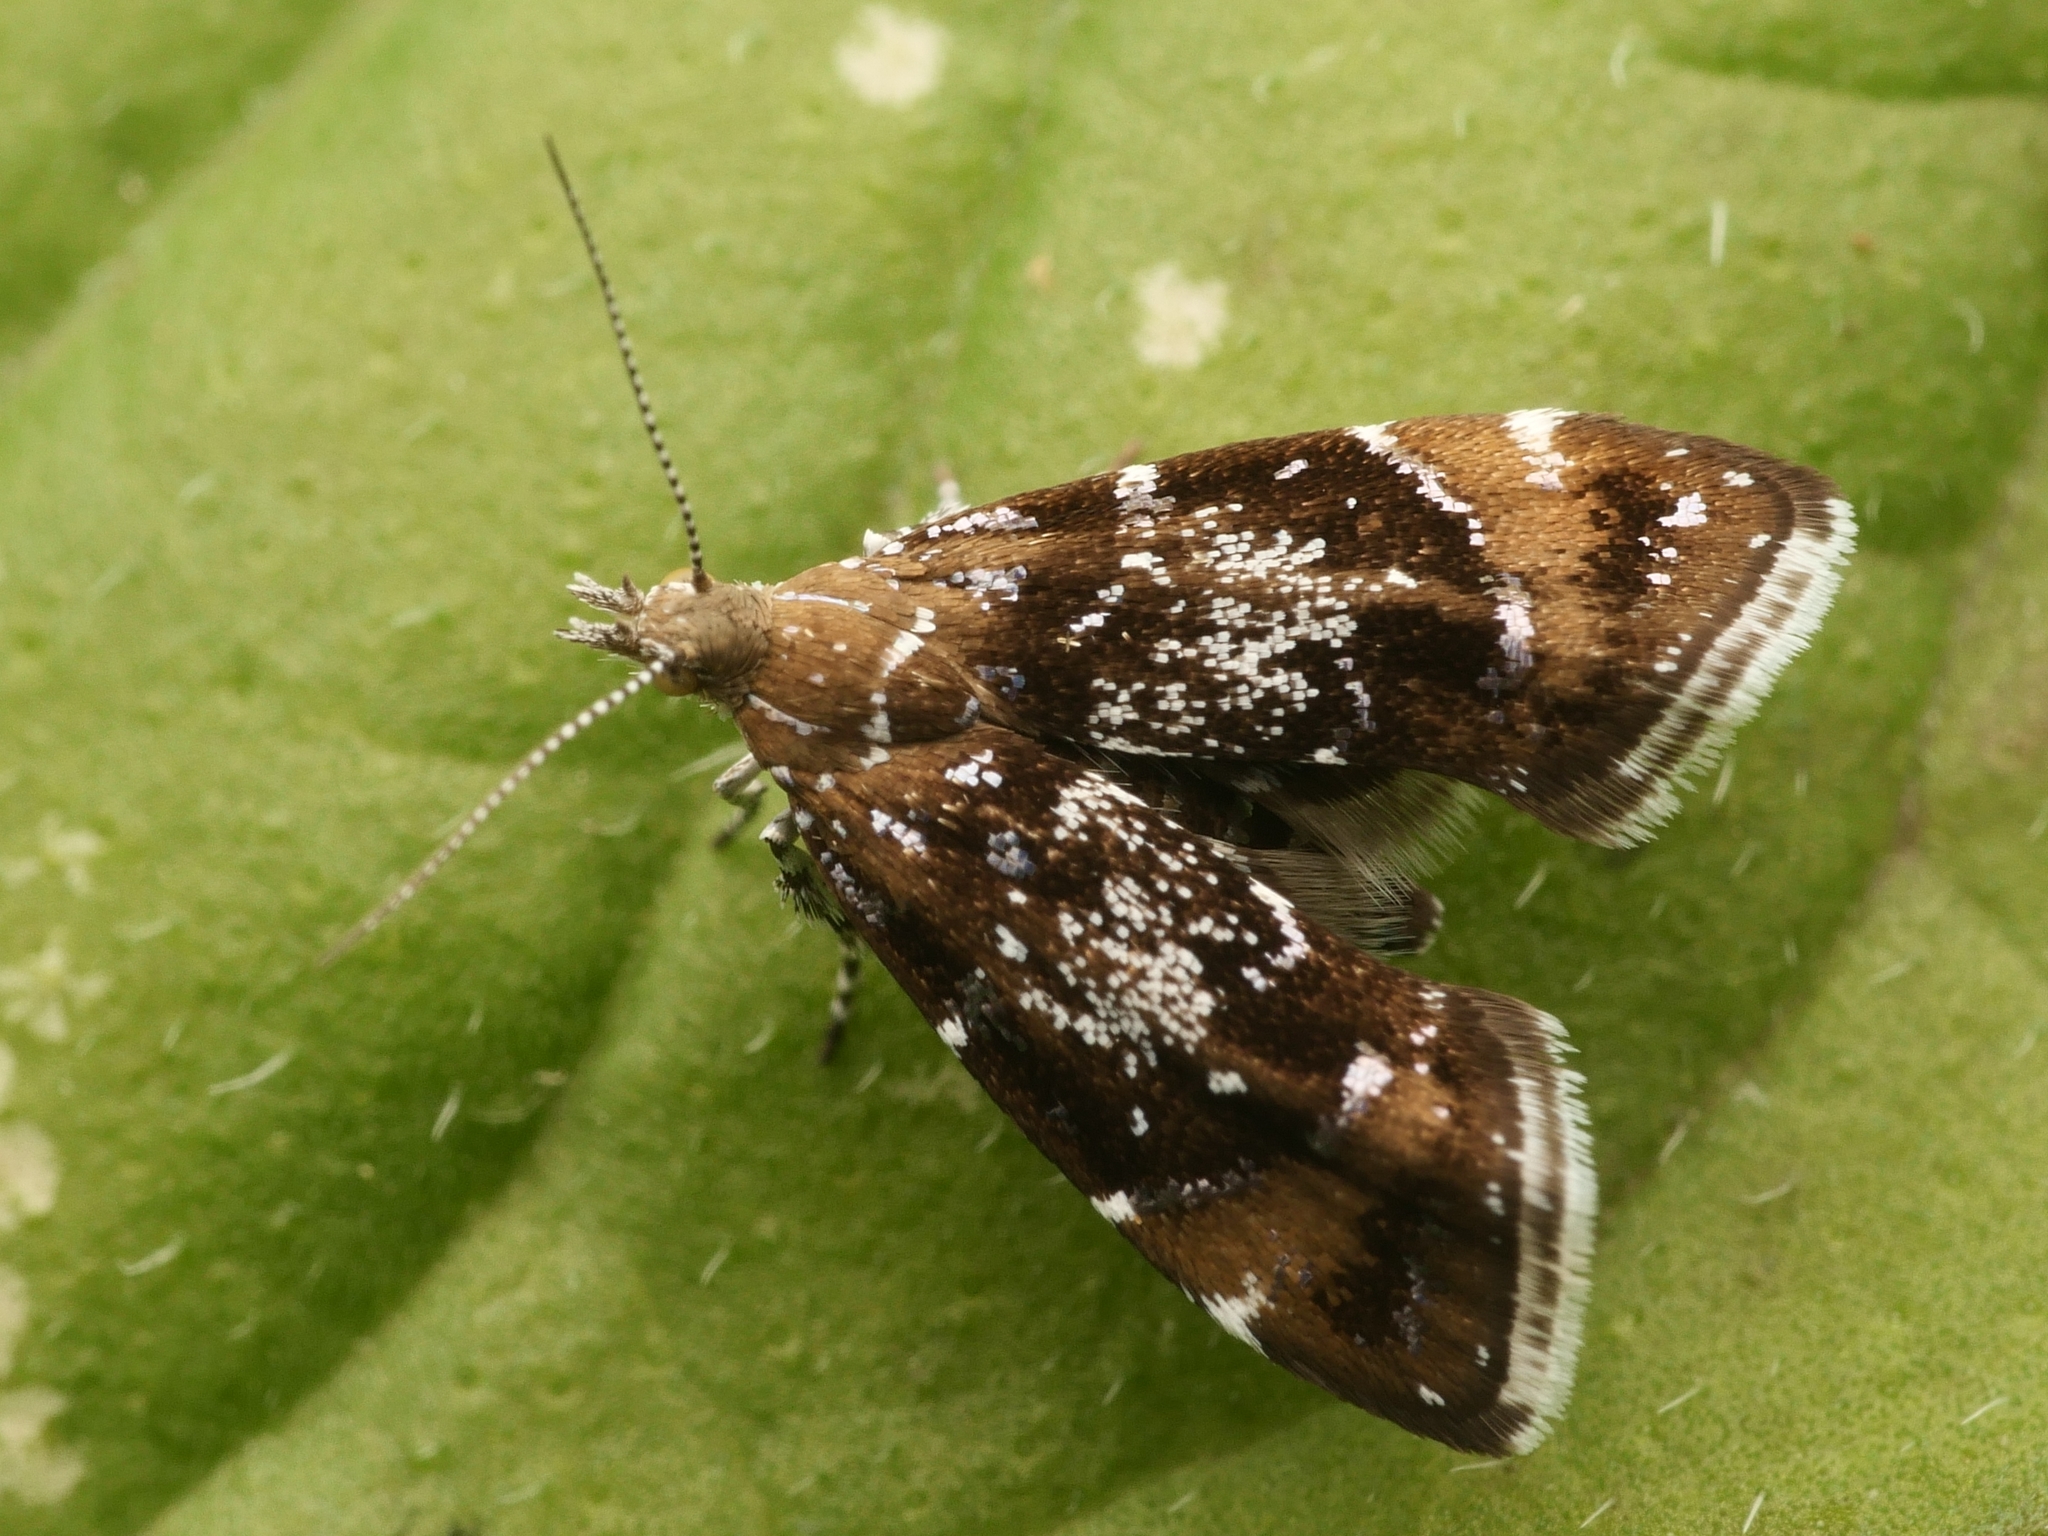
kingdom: Animalia
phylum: Arthropoda
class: Insecta
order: Lepidoptera
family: Choreutidae
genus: Prochoreutis
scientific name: Prochoreutis sehestediana
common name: Silver-dot twitcher
